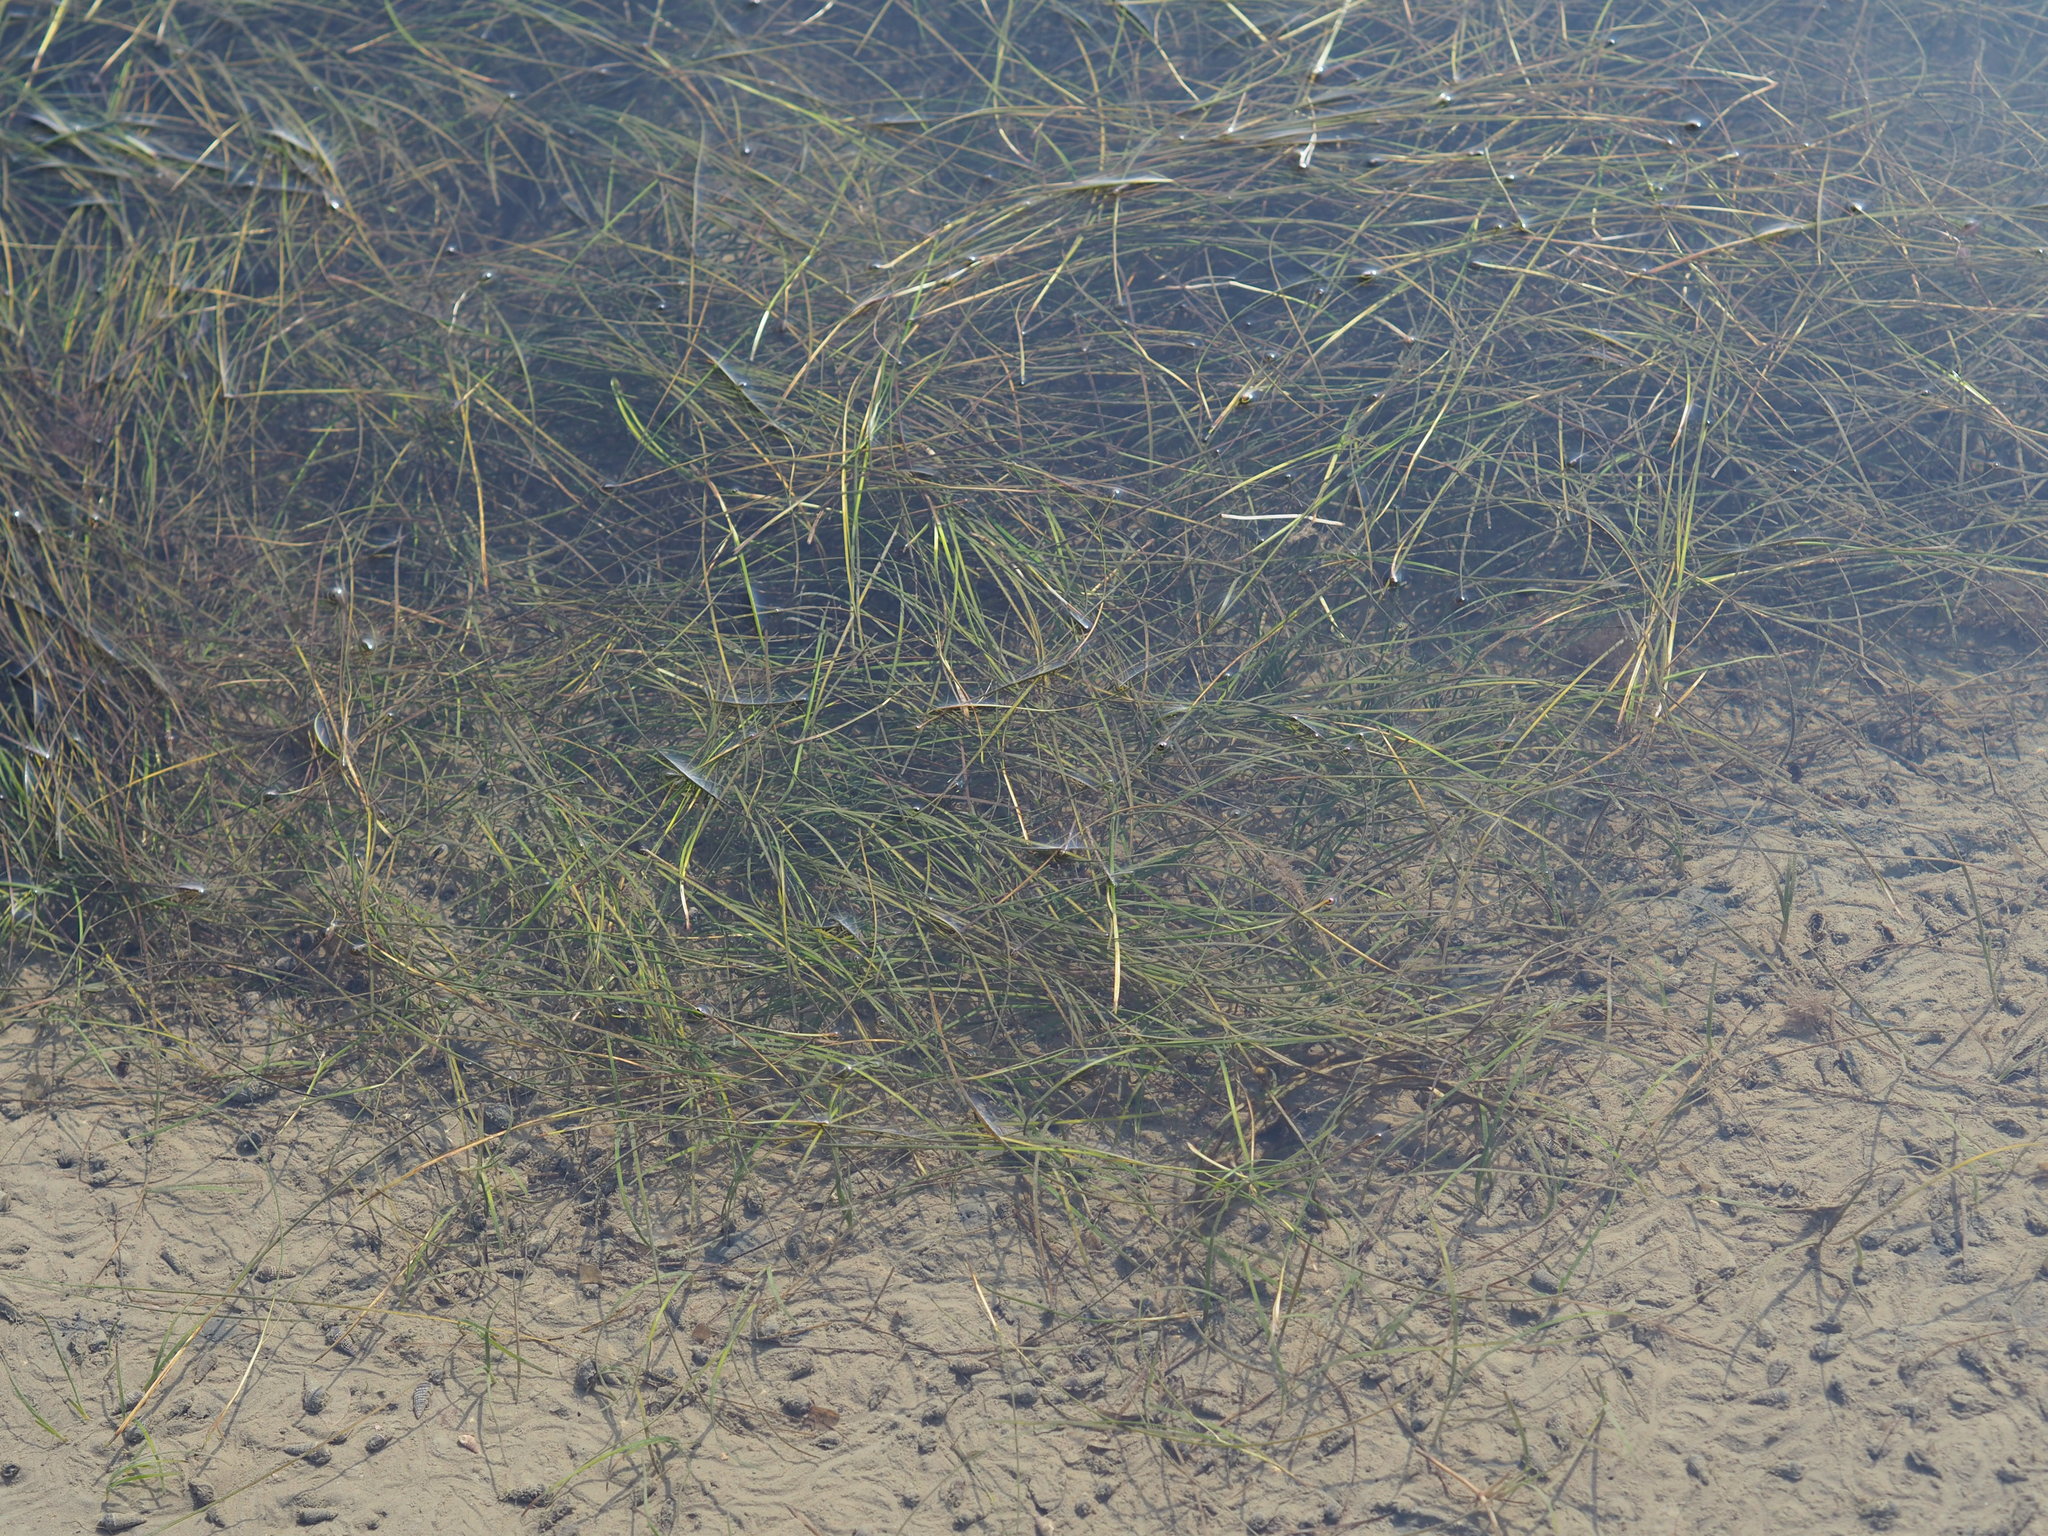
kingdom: Plantae
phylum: Tracheophyta
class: Liliopsida
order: Alismatales
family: Ruppiaceae
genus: Ruppia
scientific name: Ruppia maritima
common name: Beaked tasselweed
